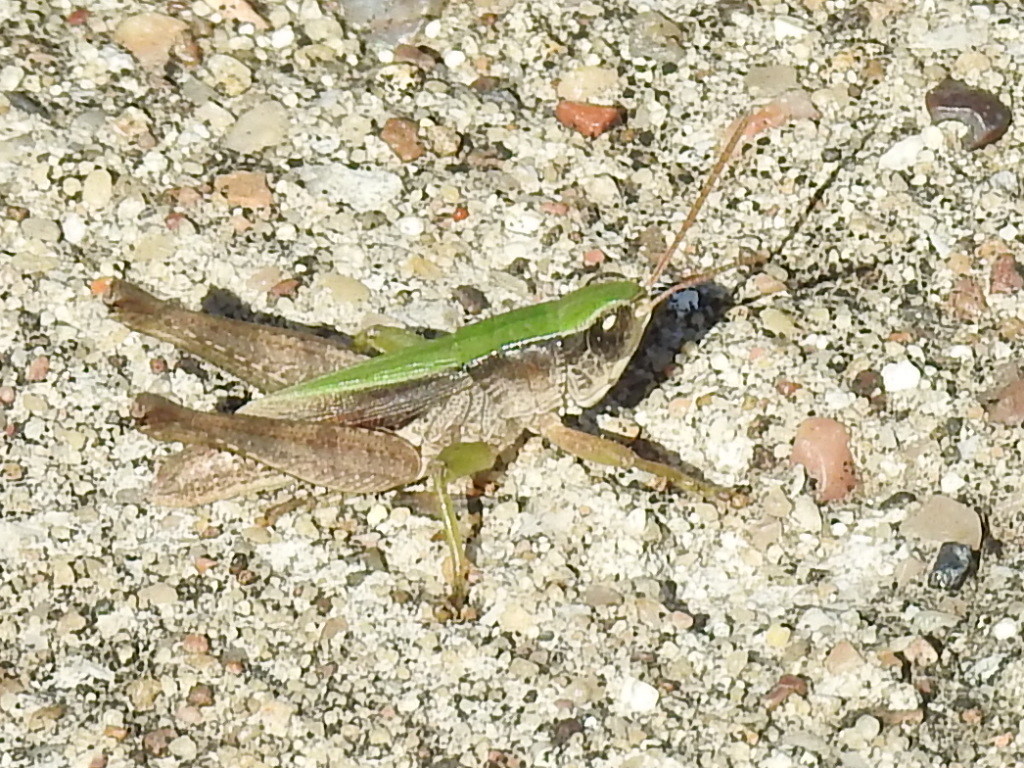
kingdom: Animalia
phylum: Arthropoda
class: Insecta
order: Orthoptera
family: Acrididae
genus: Dichromorpha
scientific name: Dichromorpha viridis
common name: Short-winged green grasshopper
